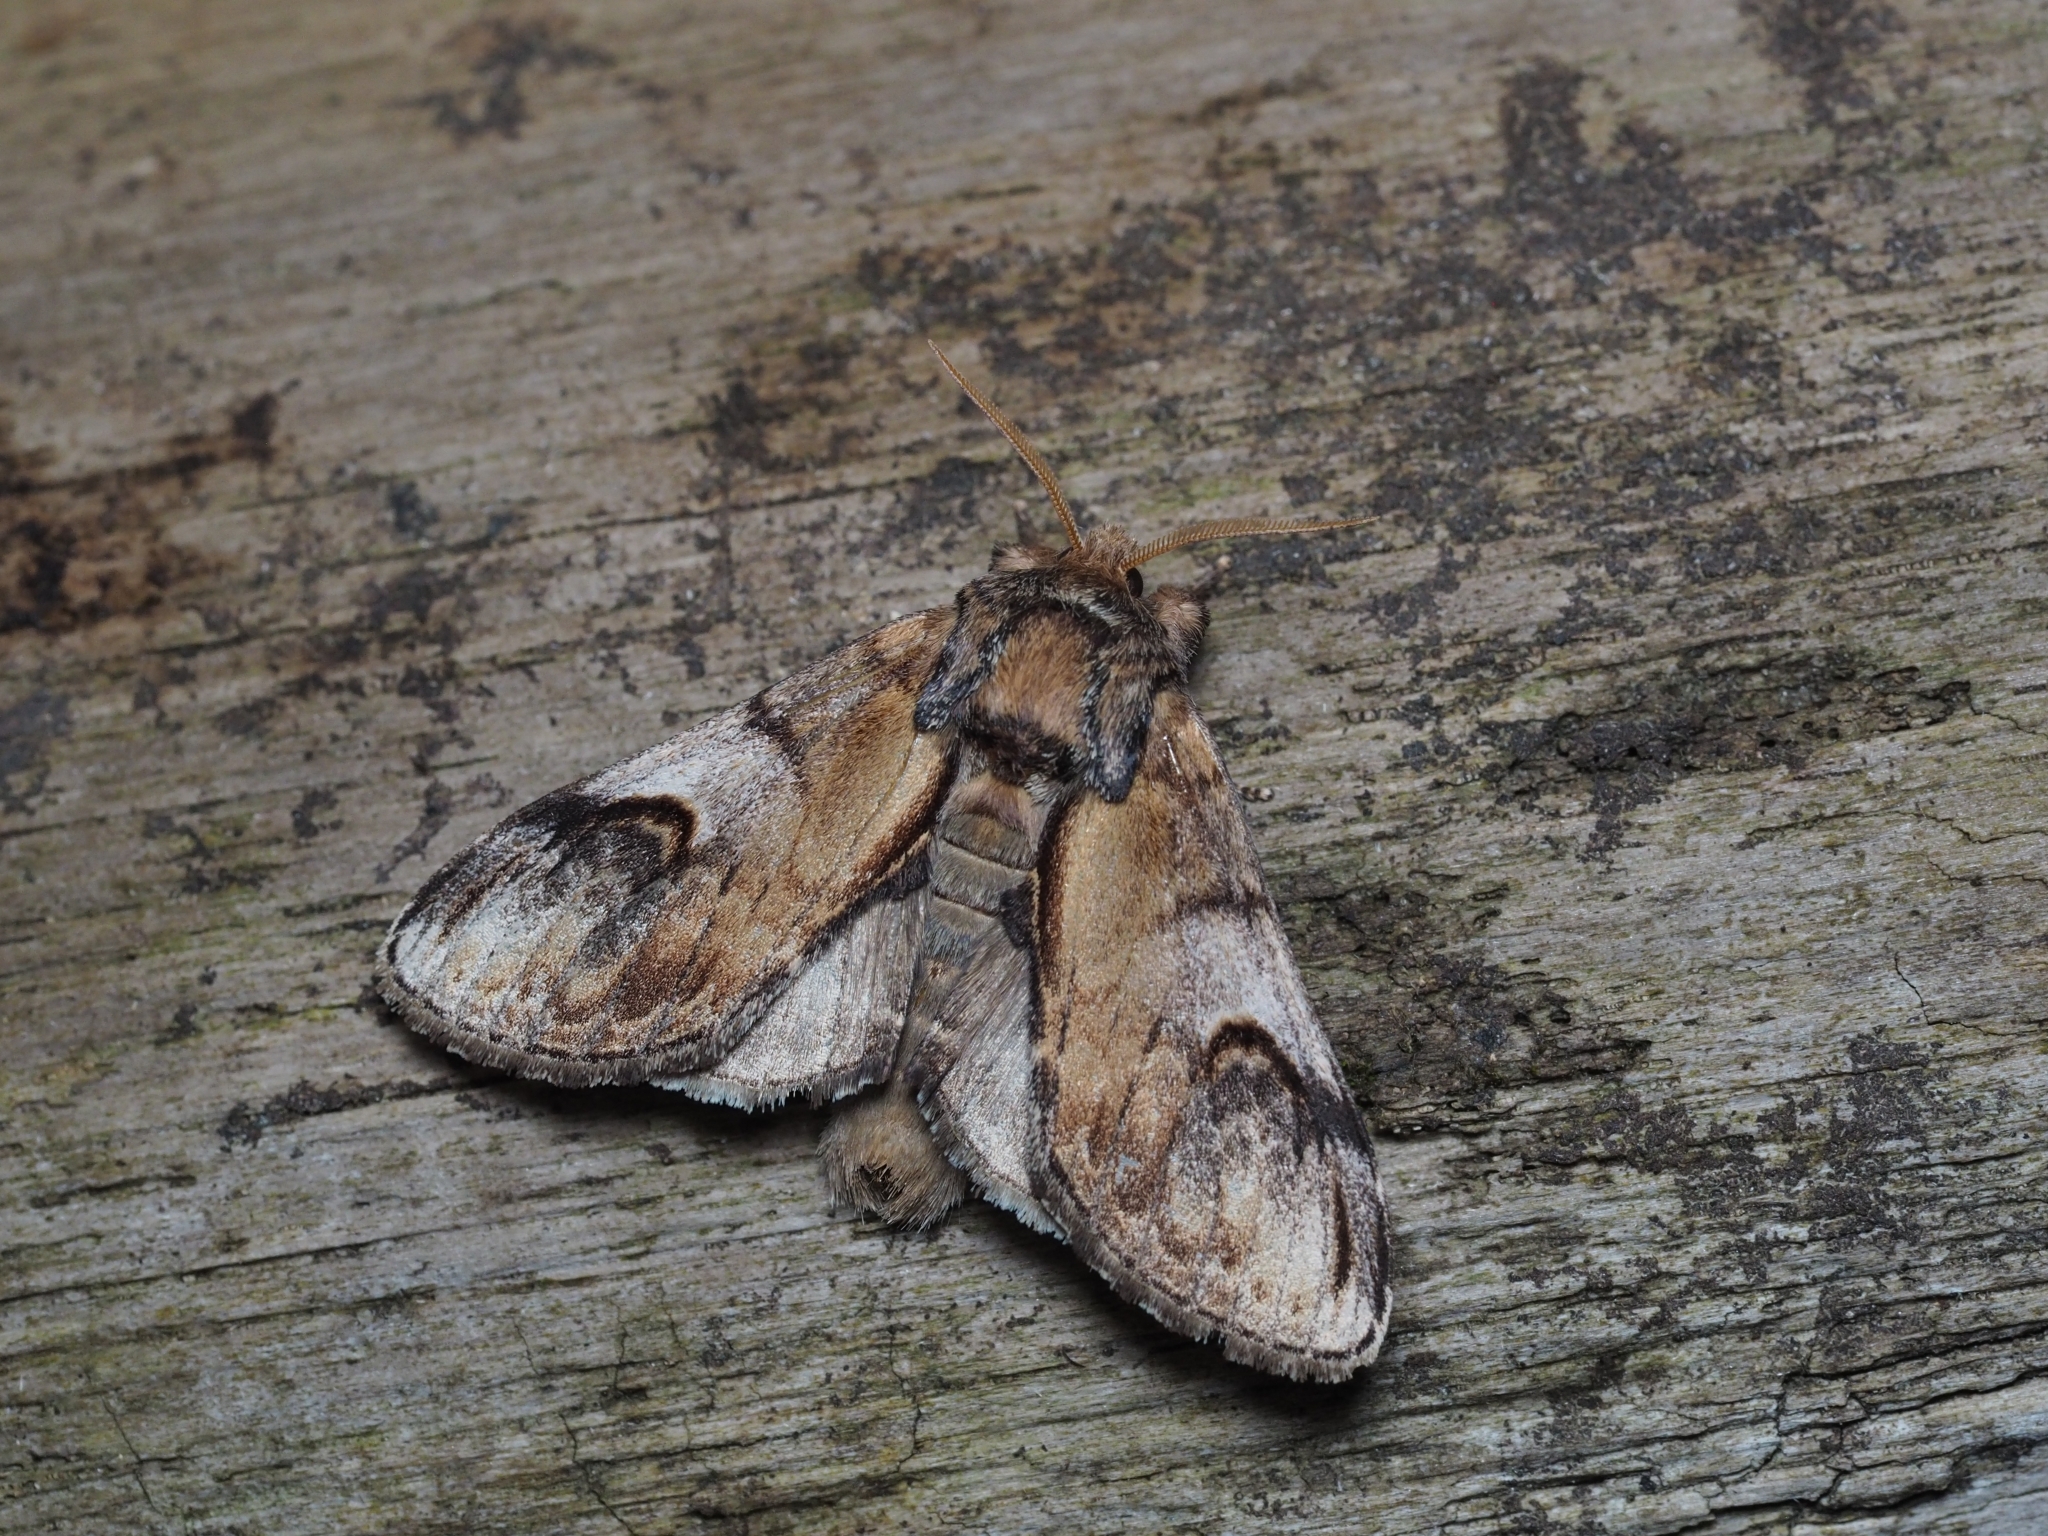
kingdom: Animalia
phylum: Arthropoda
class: Insecta
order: Lepidoptera
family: Notodontidae
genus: Notodonta
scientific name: Notodonta ziczac
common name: Pebble prominent
